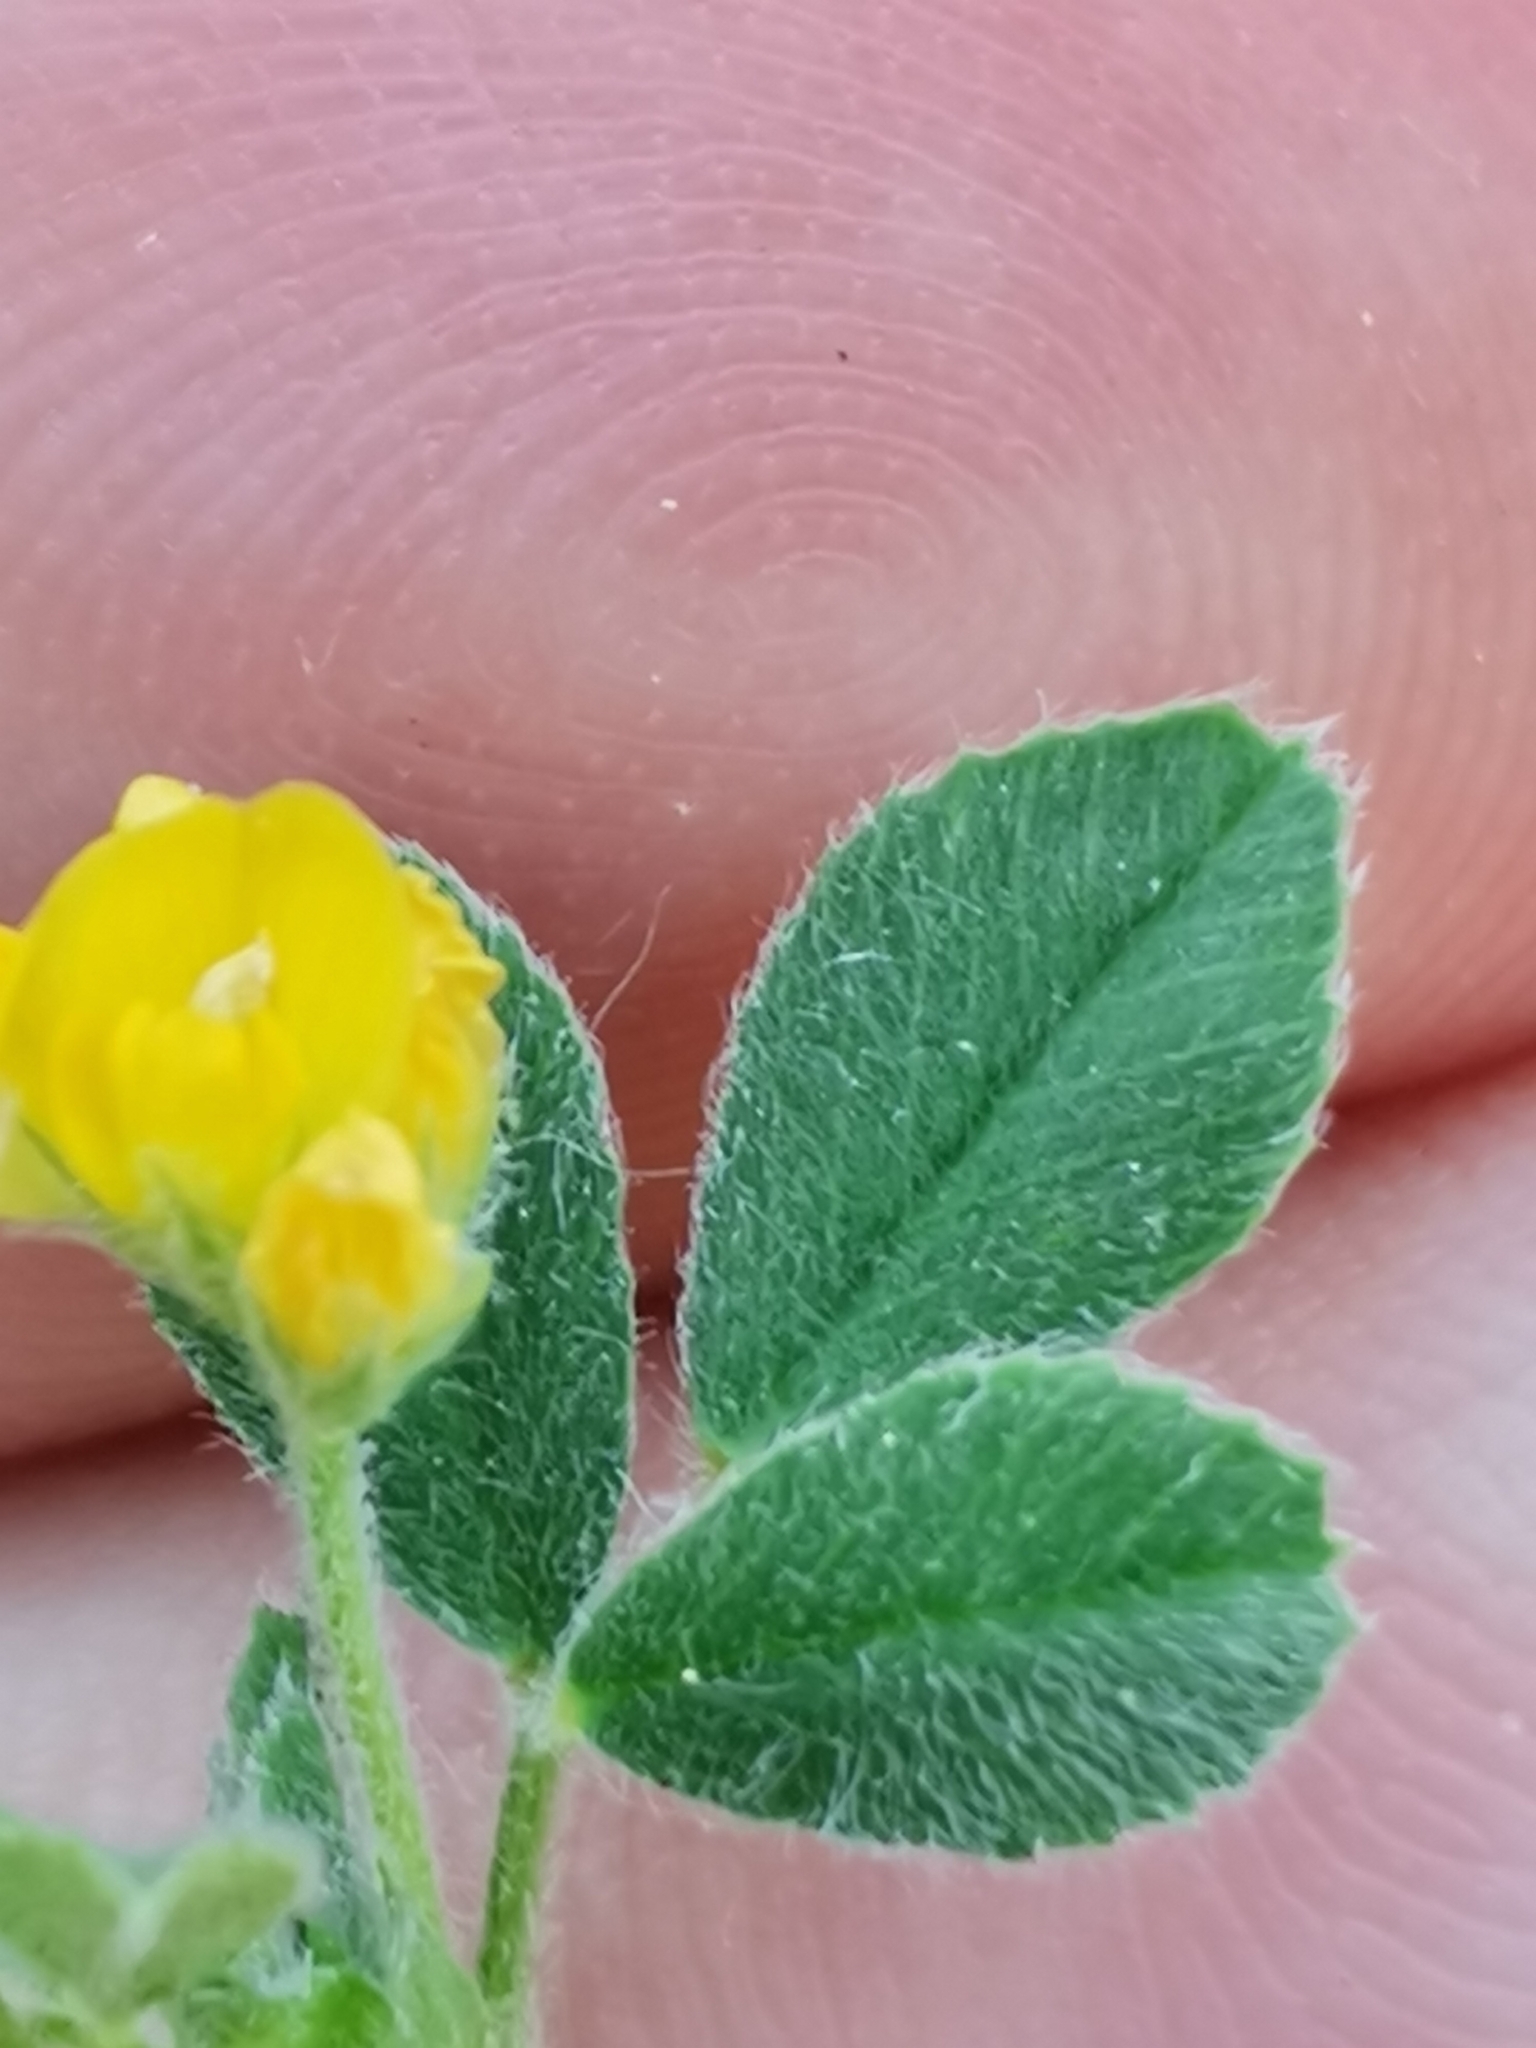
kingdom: Plantae
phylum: Tracheophyta
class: Magnoliopsida
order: Fabales
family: Fabaceae
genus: Medicago
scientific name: Medicago minima
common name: Little bur-clover
